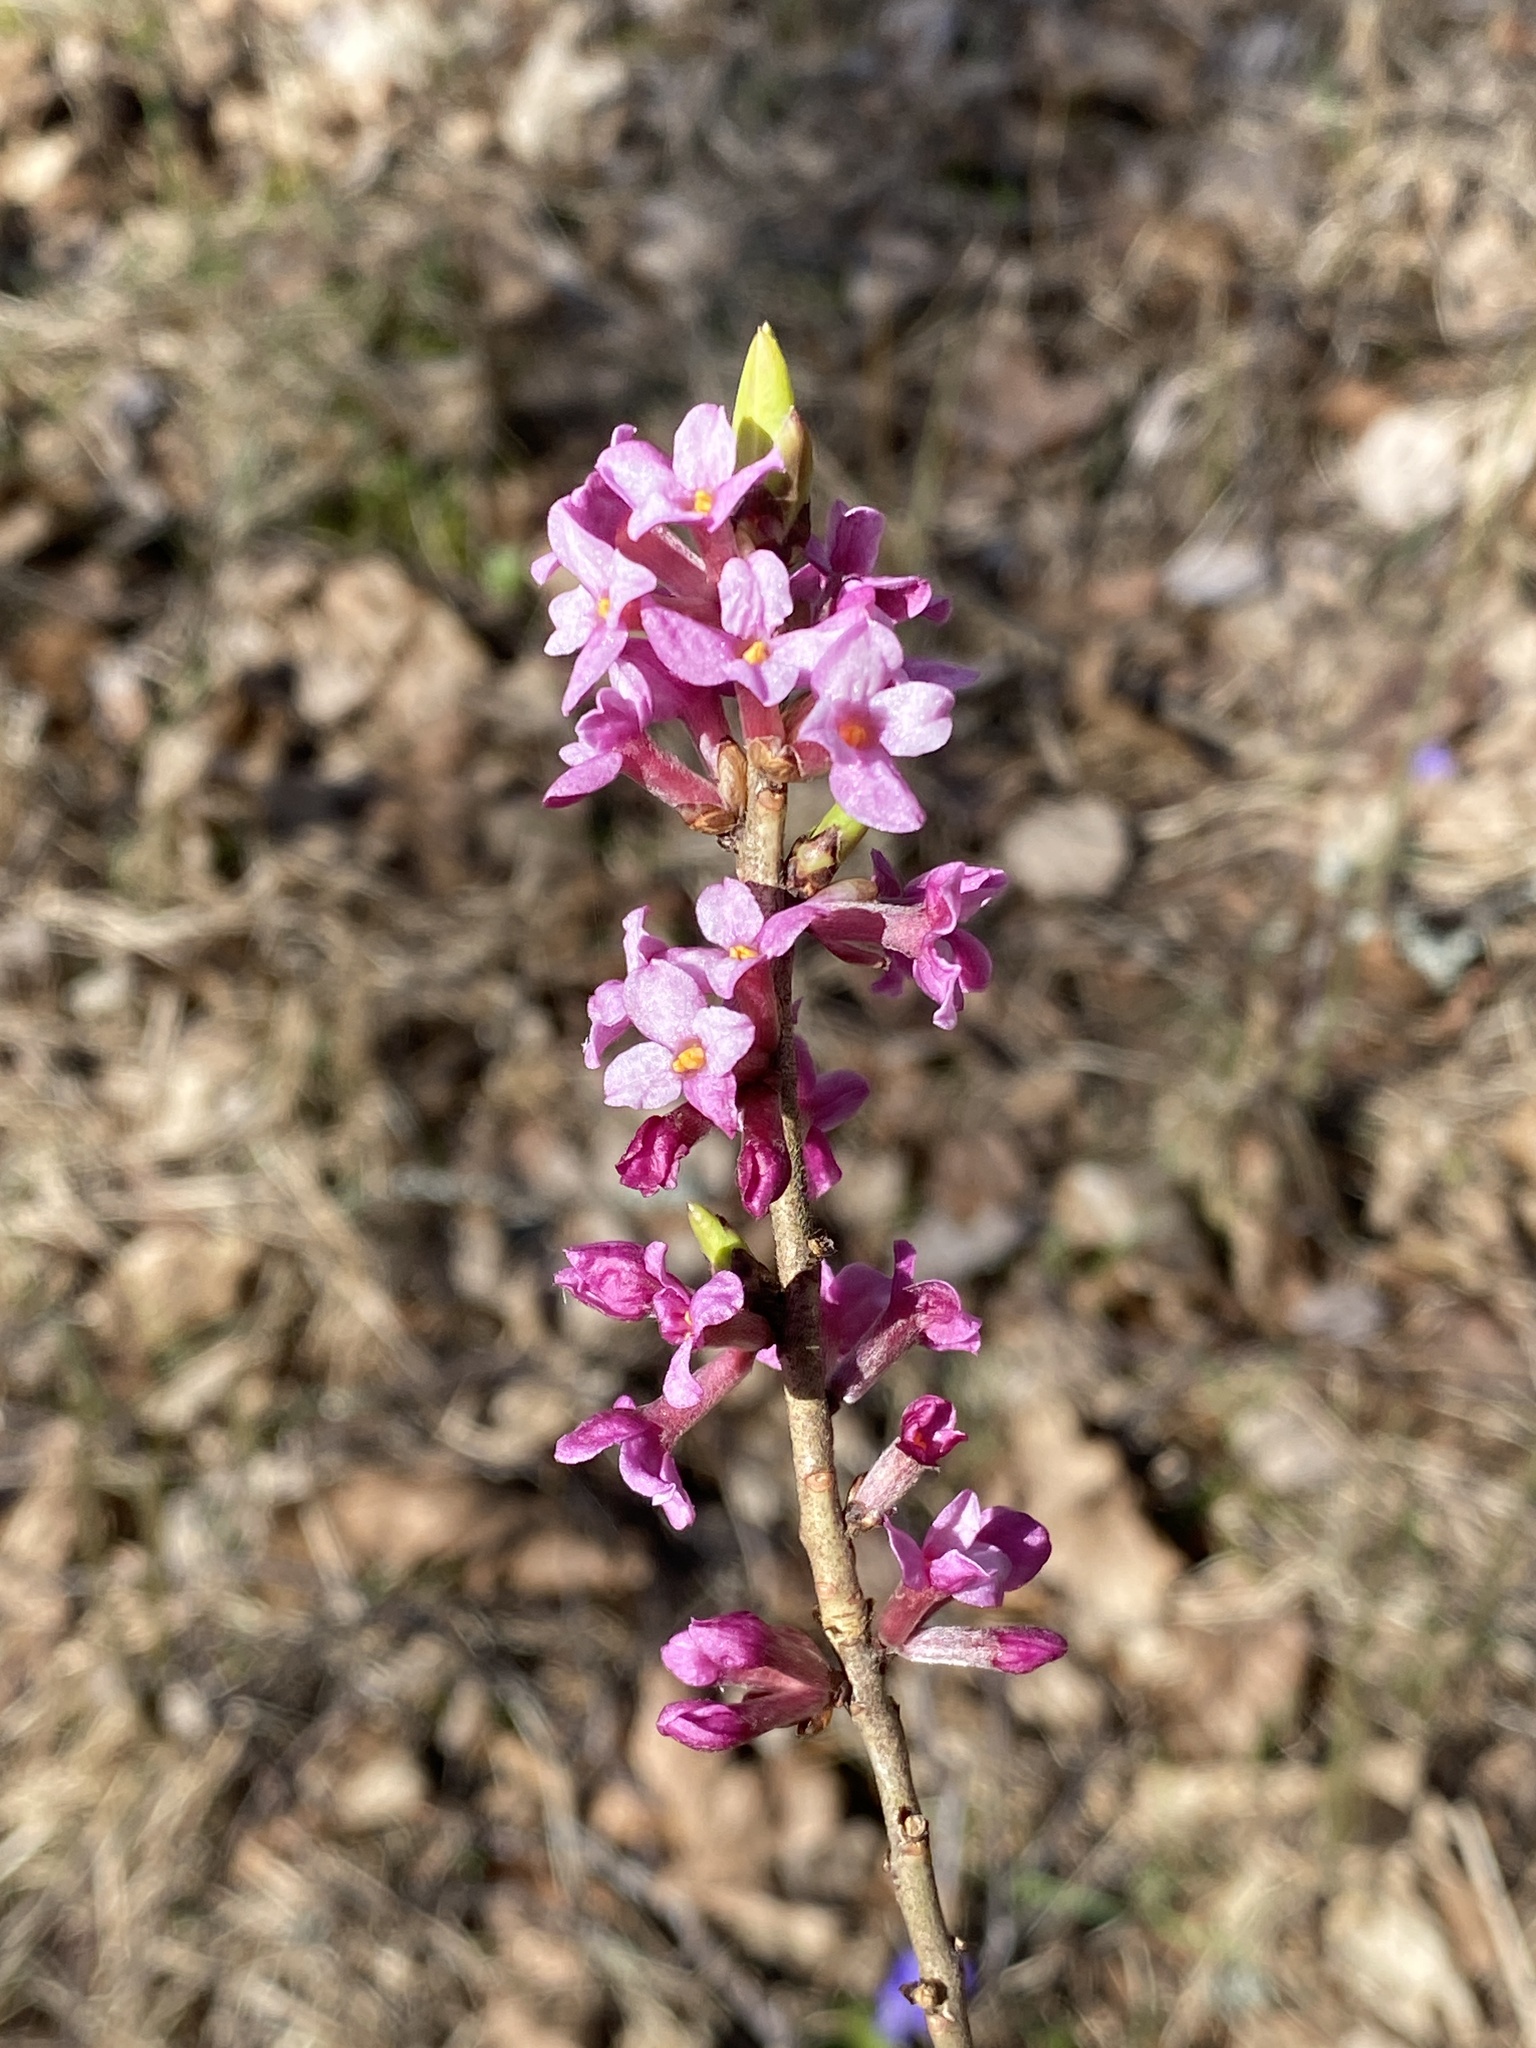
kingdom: Plantae
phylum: Tracheophyta
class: Magnoliopsida
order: Malvales
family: Thymelaeaceae
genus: Daphne
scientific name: Daphne mezereum
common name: Mezereon
